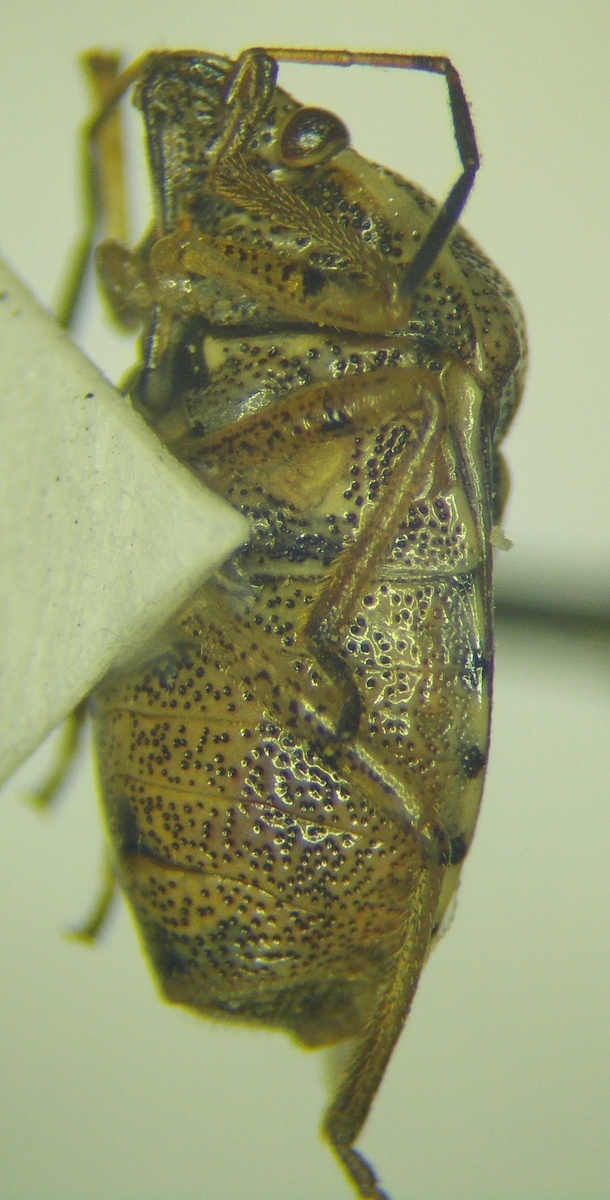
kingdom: Animalia
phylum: Arthropoda
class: Insecta
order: Hemiptera
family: Pentatomidae
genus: Stagonomus
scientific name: Stagonomus amoenus
